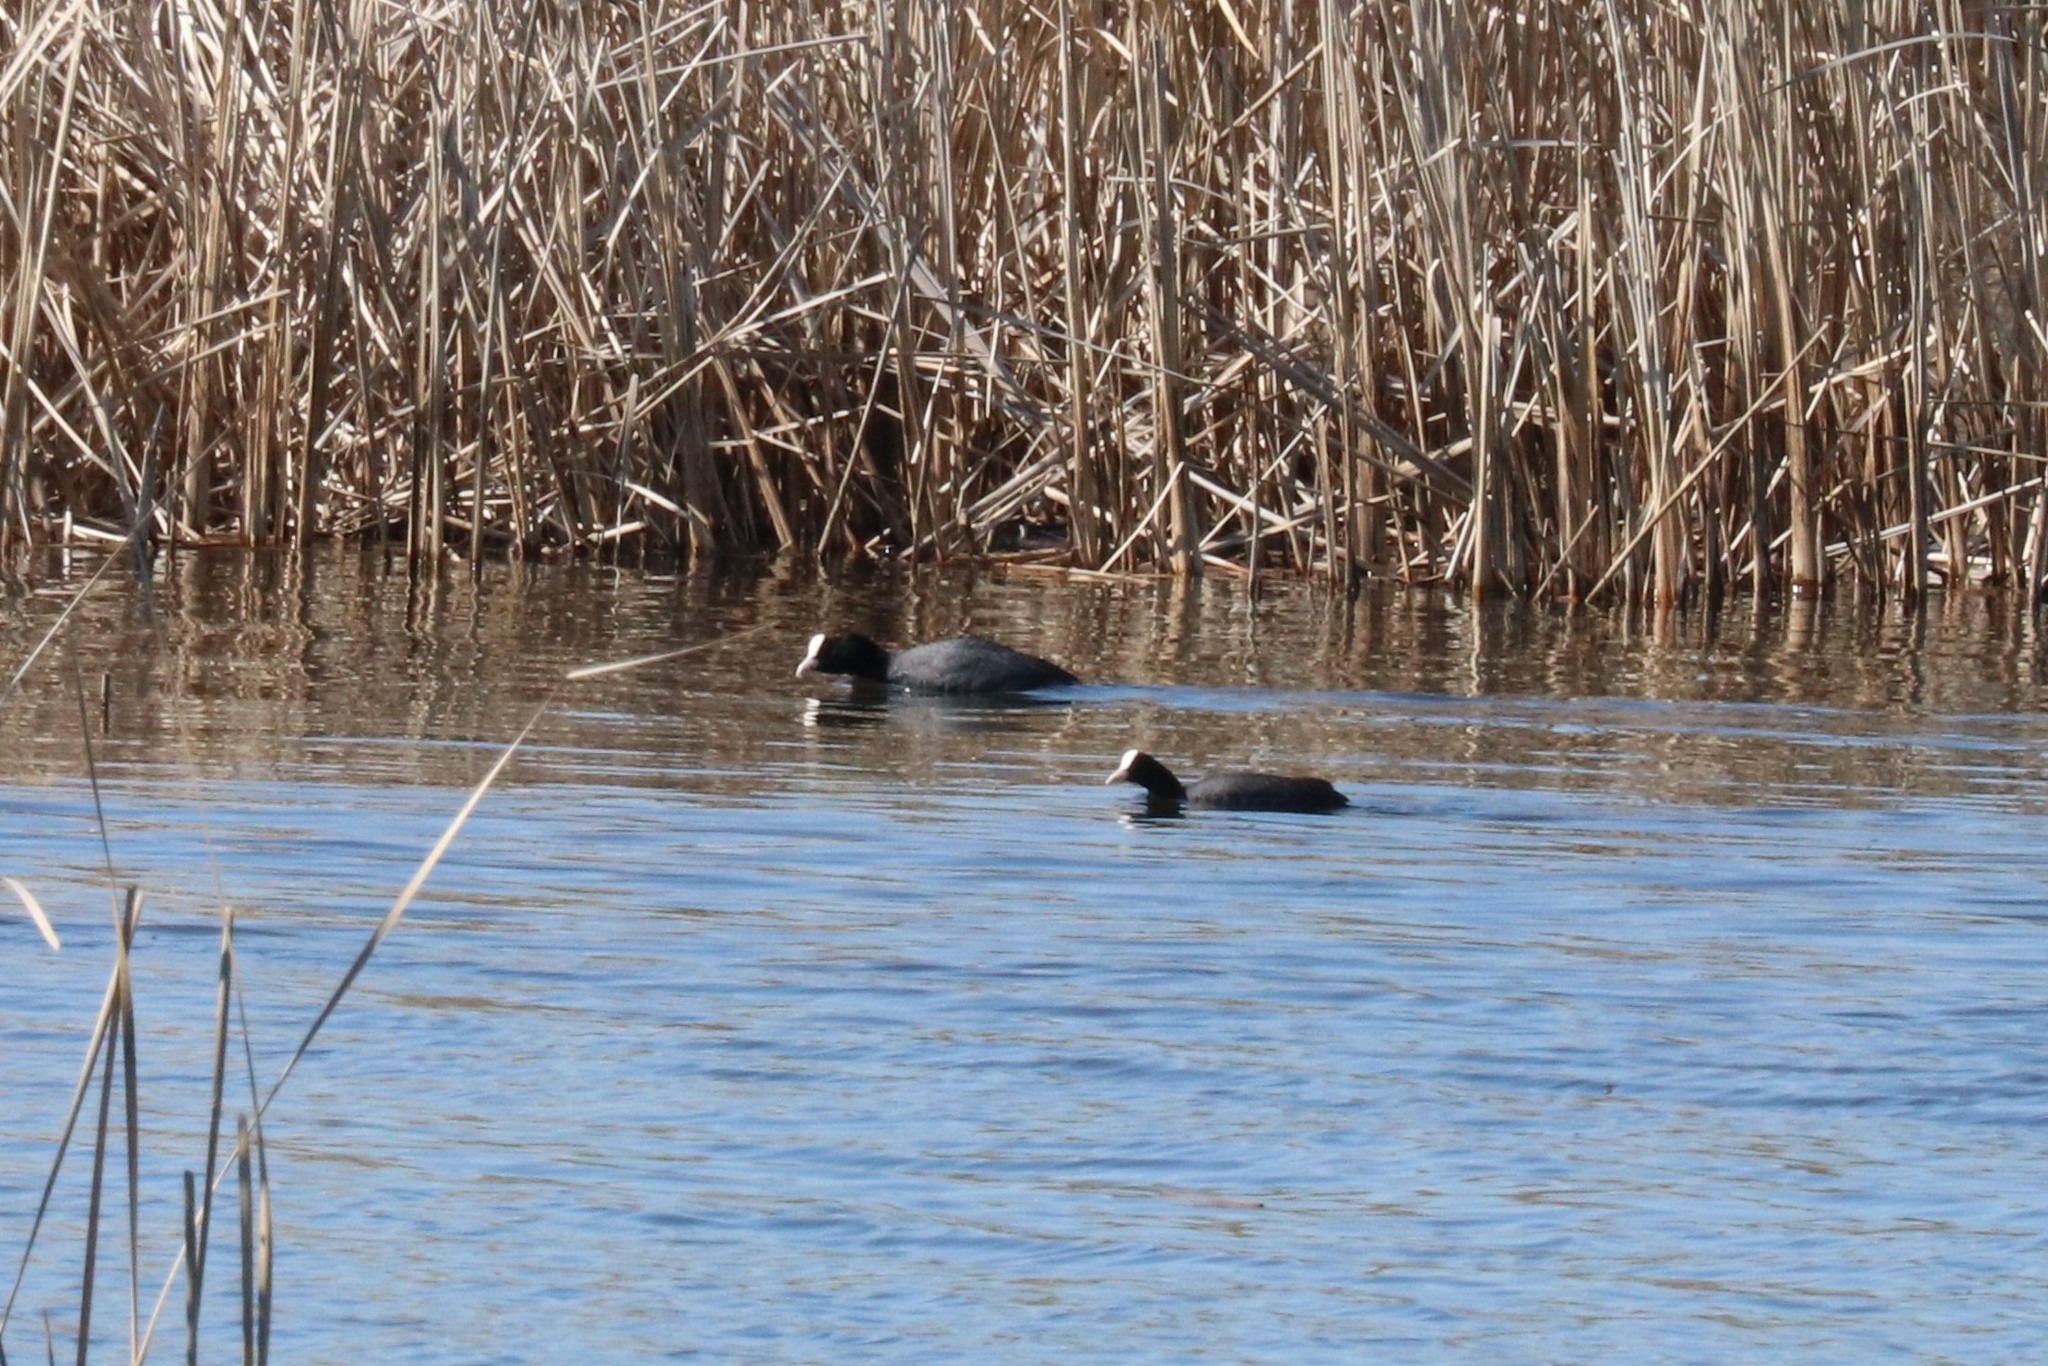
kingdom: Animalia
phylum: Chordata
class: Aves
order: Gruiformes
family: Rallidae
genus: Fulica
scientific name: Fulica atra
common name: Eurasian coot
